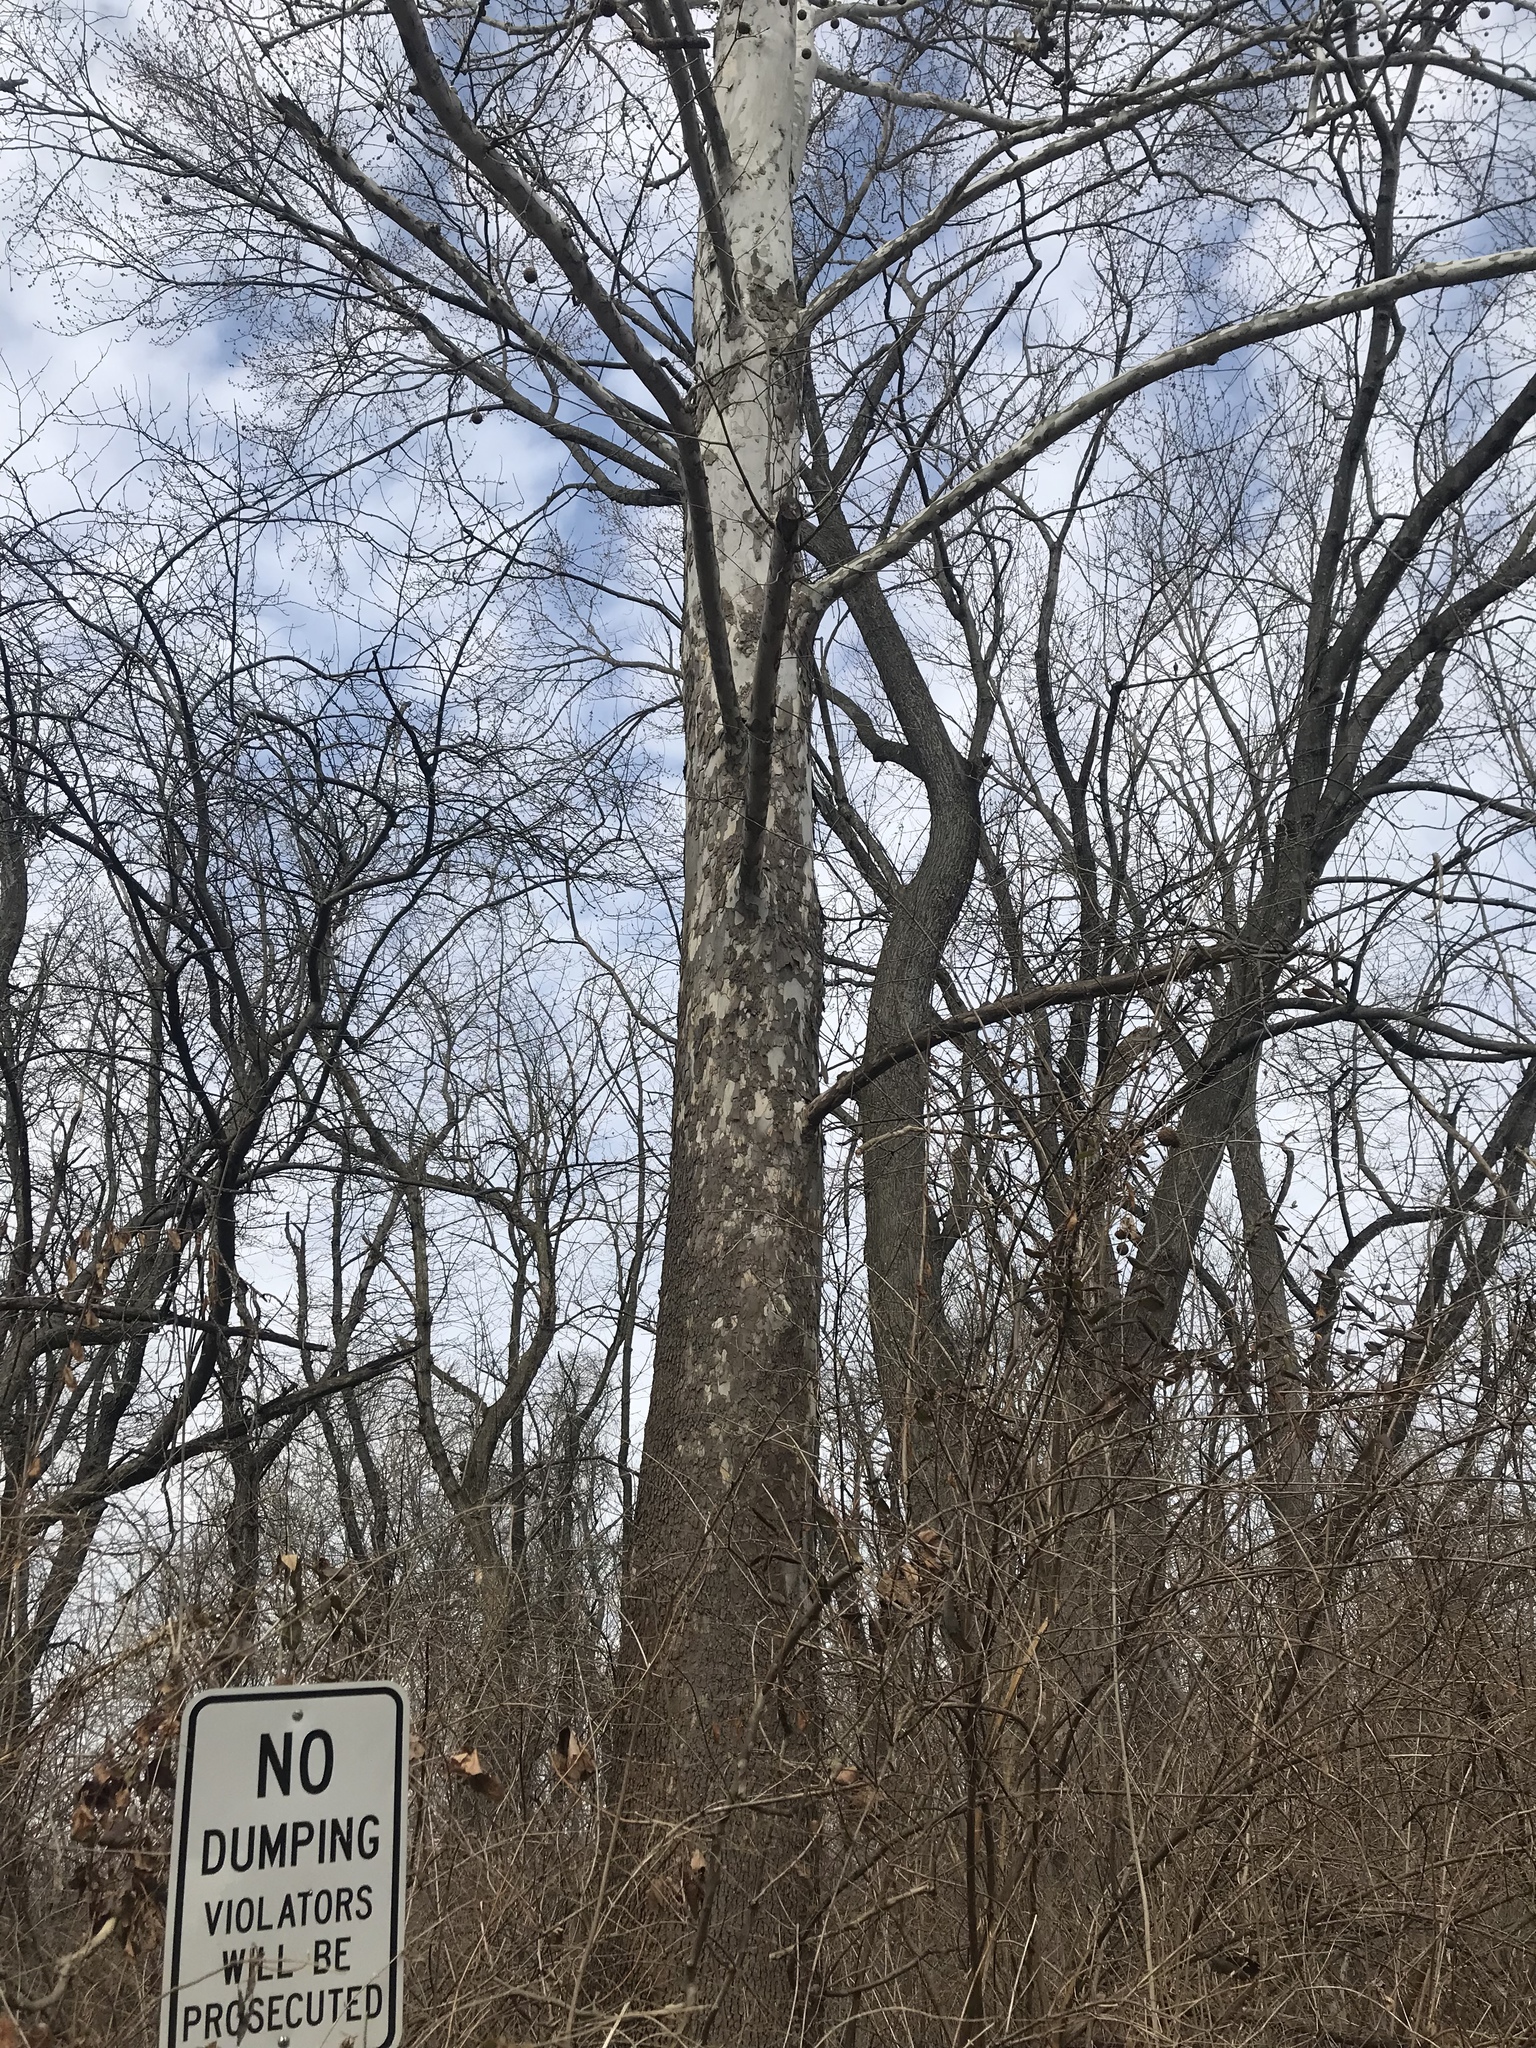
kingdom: Plantae
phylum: Tracheophyta
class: Magnoliopsida
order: Proteales
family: Platanaceae
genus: Platanus
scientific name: Platanus occidentalis
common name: American sycamore
